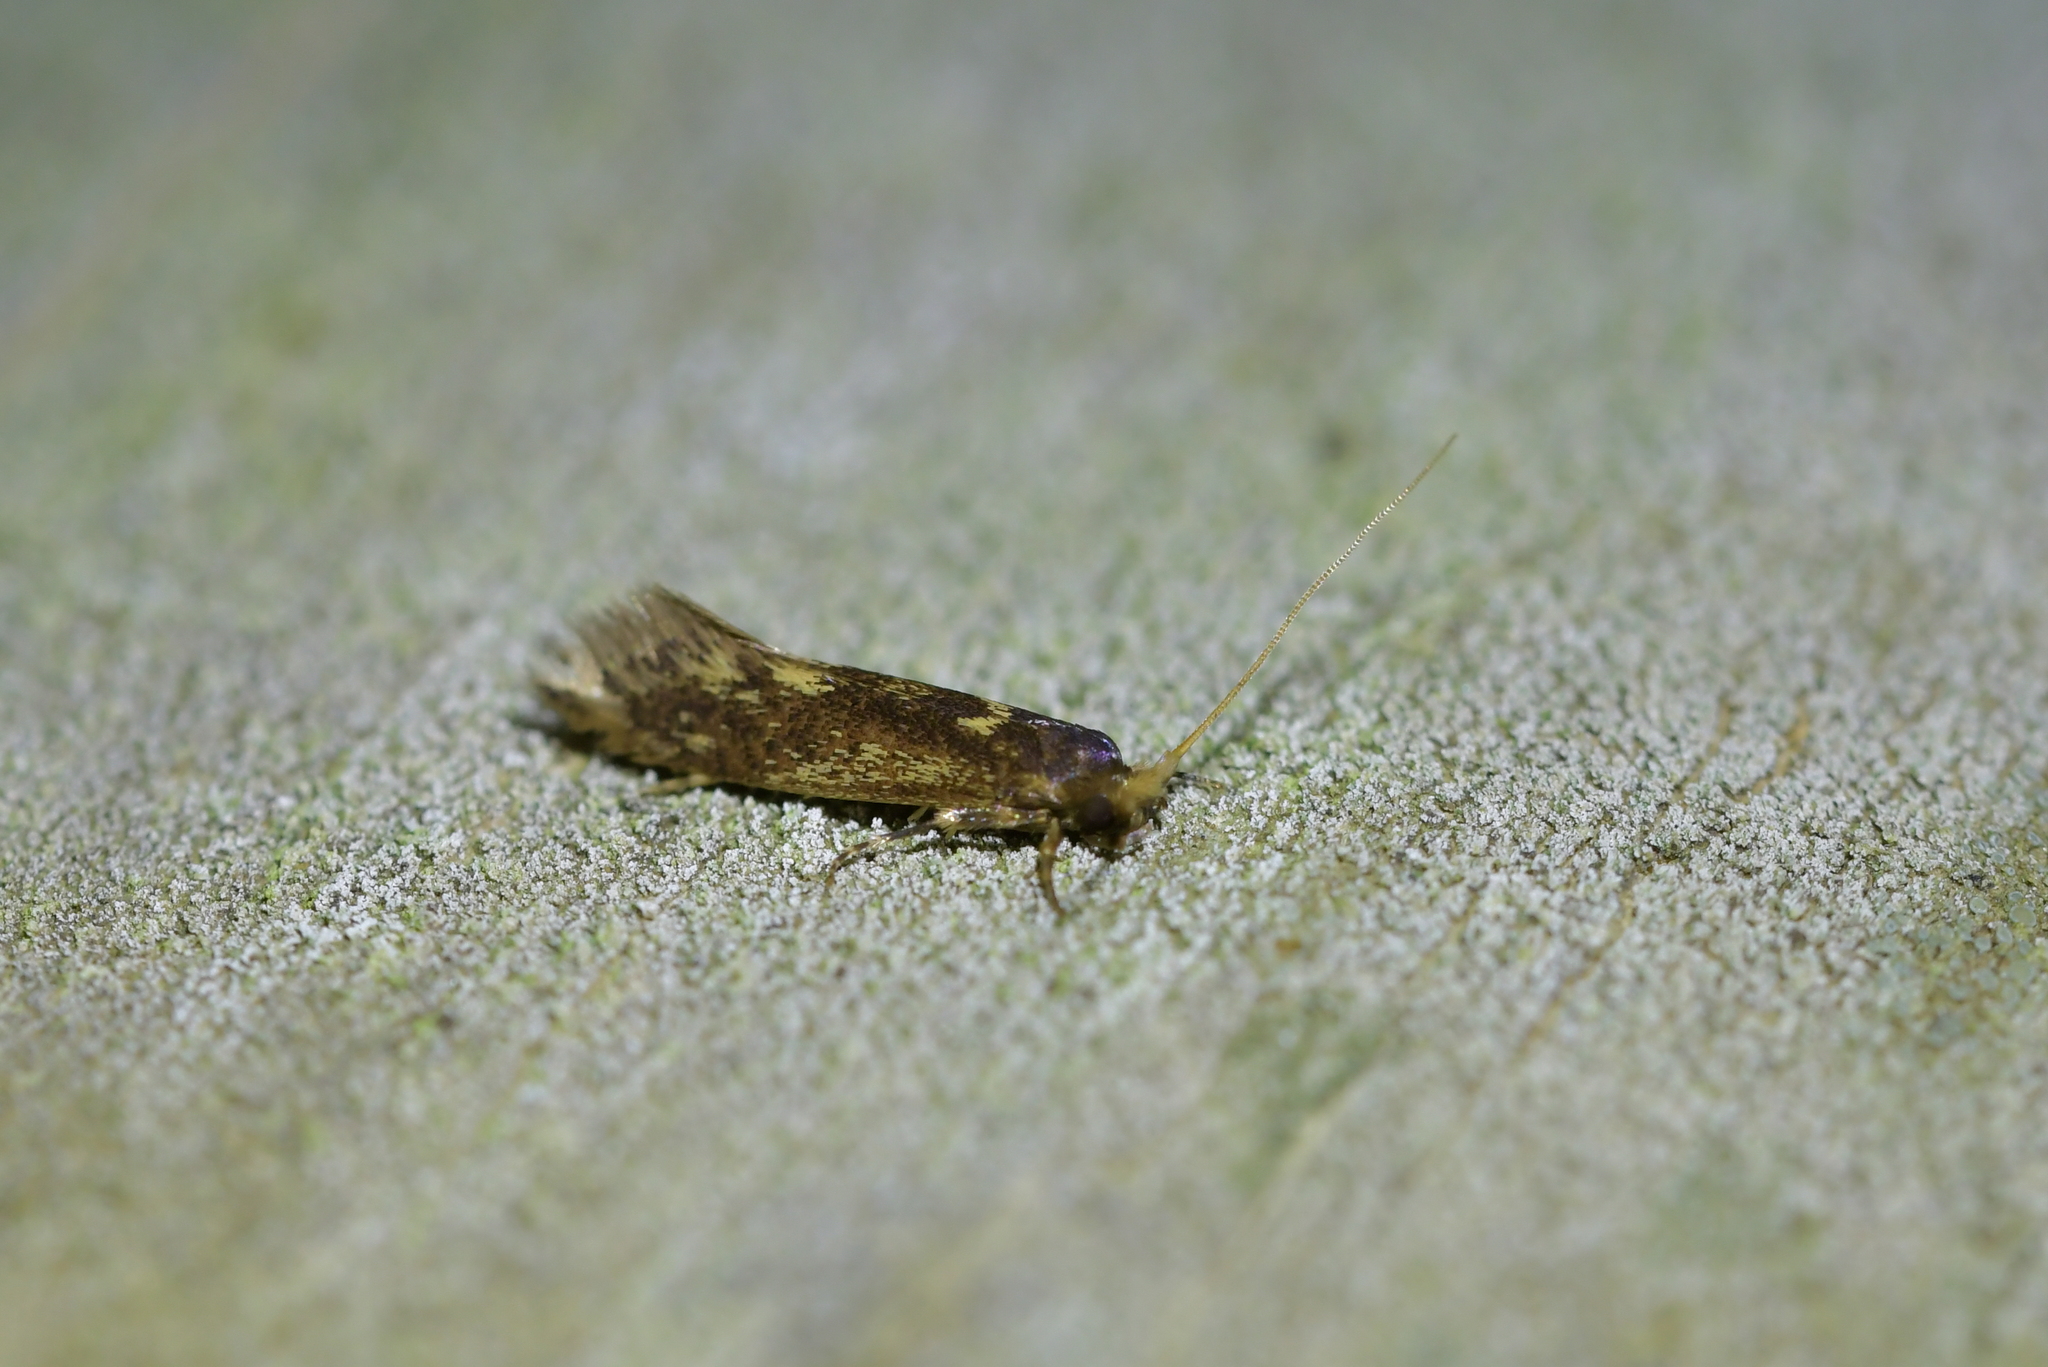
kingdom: Animalia
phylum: Arthropoda
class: Insecta
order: Lepidoptera
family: Tineidae
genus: Opogona
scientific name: Opogona omoscopa
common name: Moth
